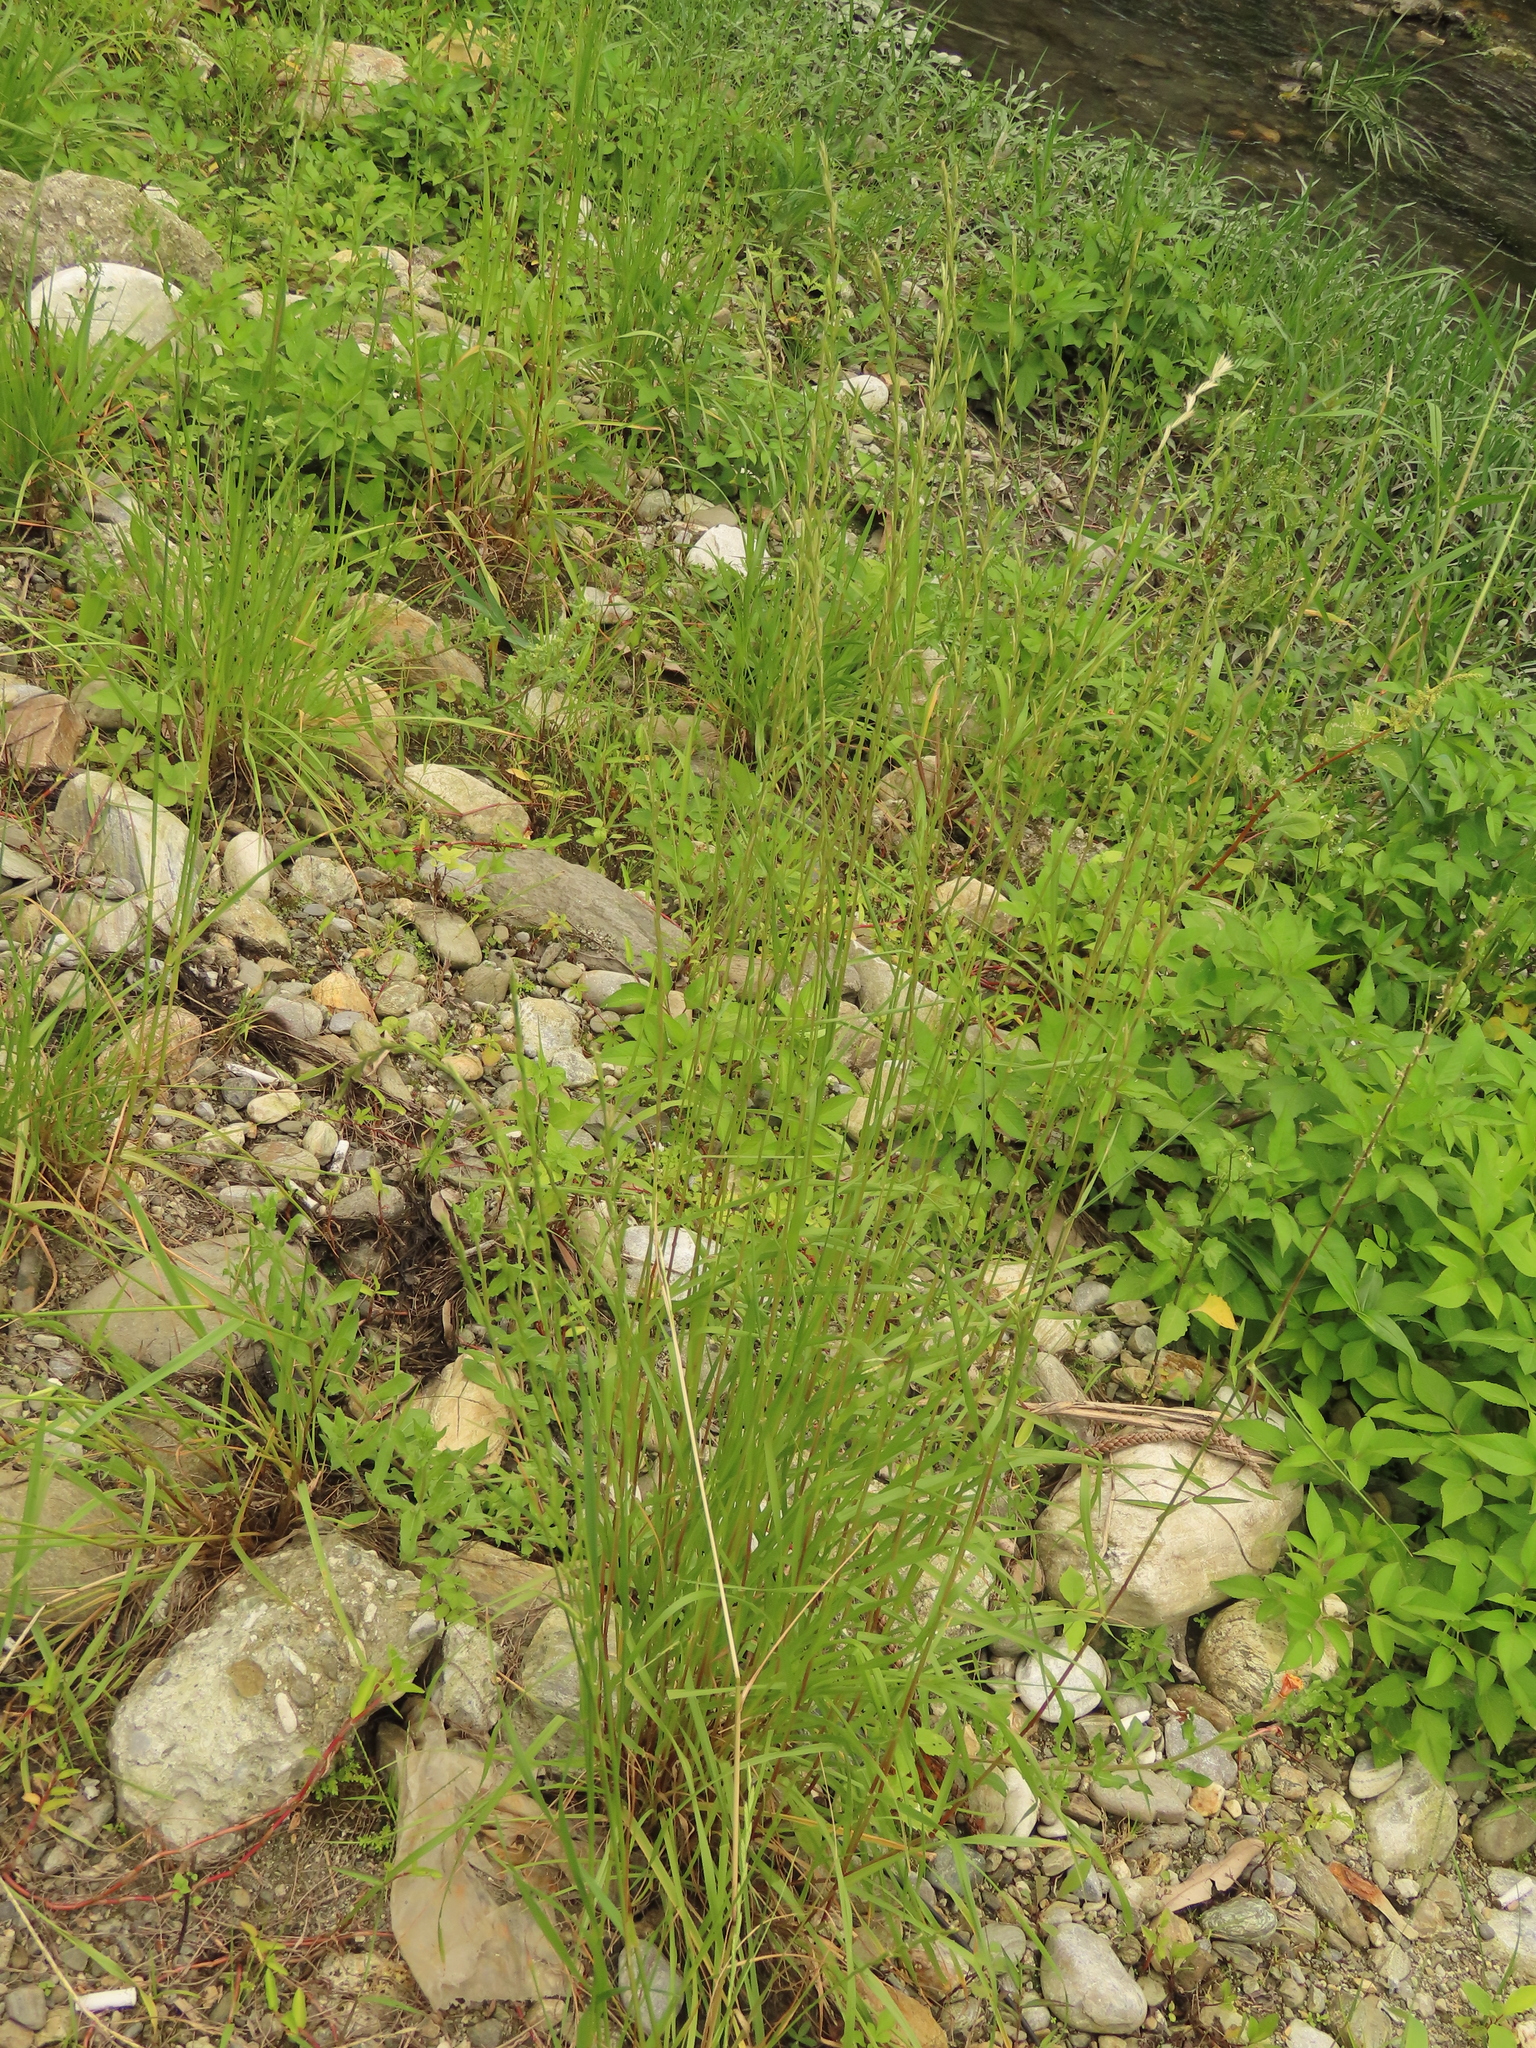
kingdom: Plantae
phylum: Tracheophyta
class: Liliopsida
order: Poales
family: Poaceae
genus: Lolium
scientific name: Lolium multiflorum
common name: Annual ryegrass
